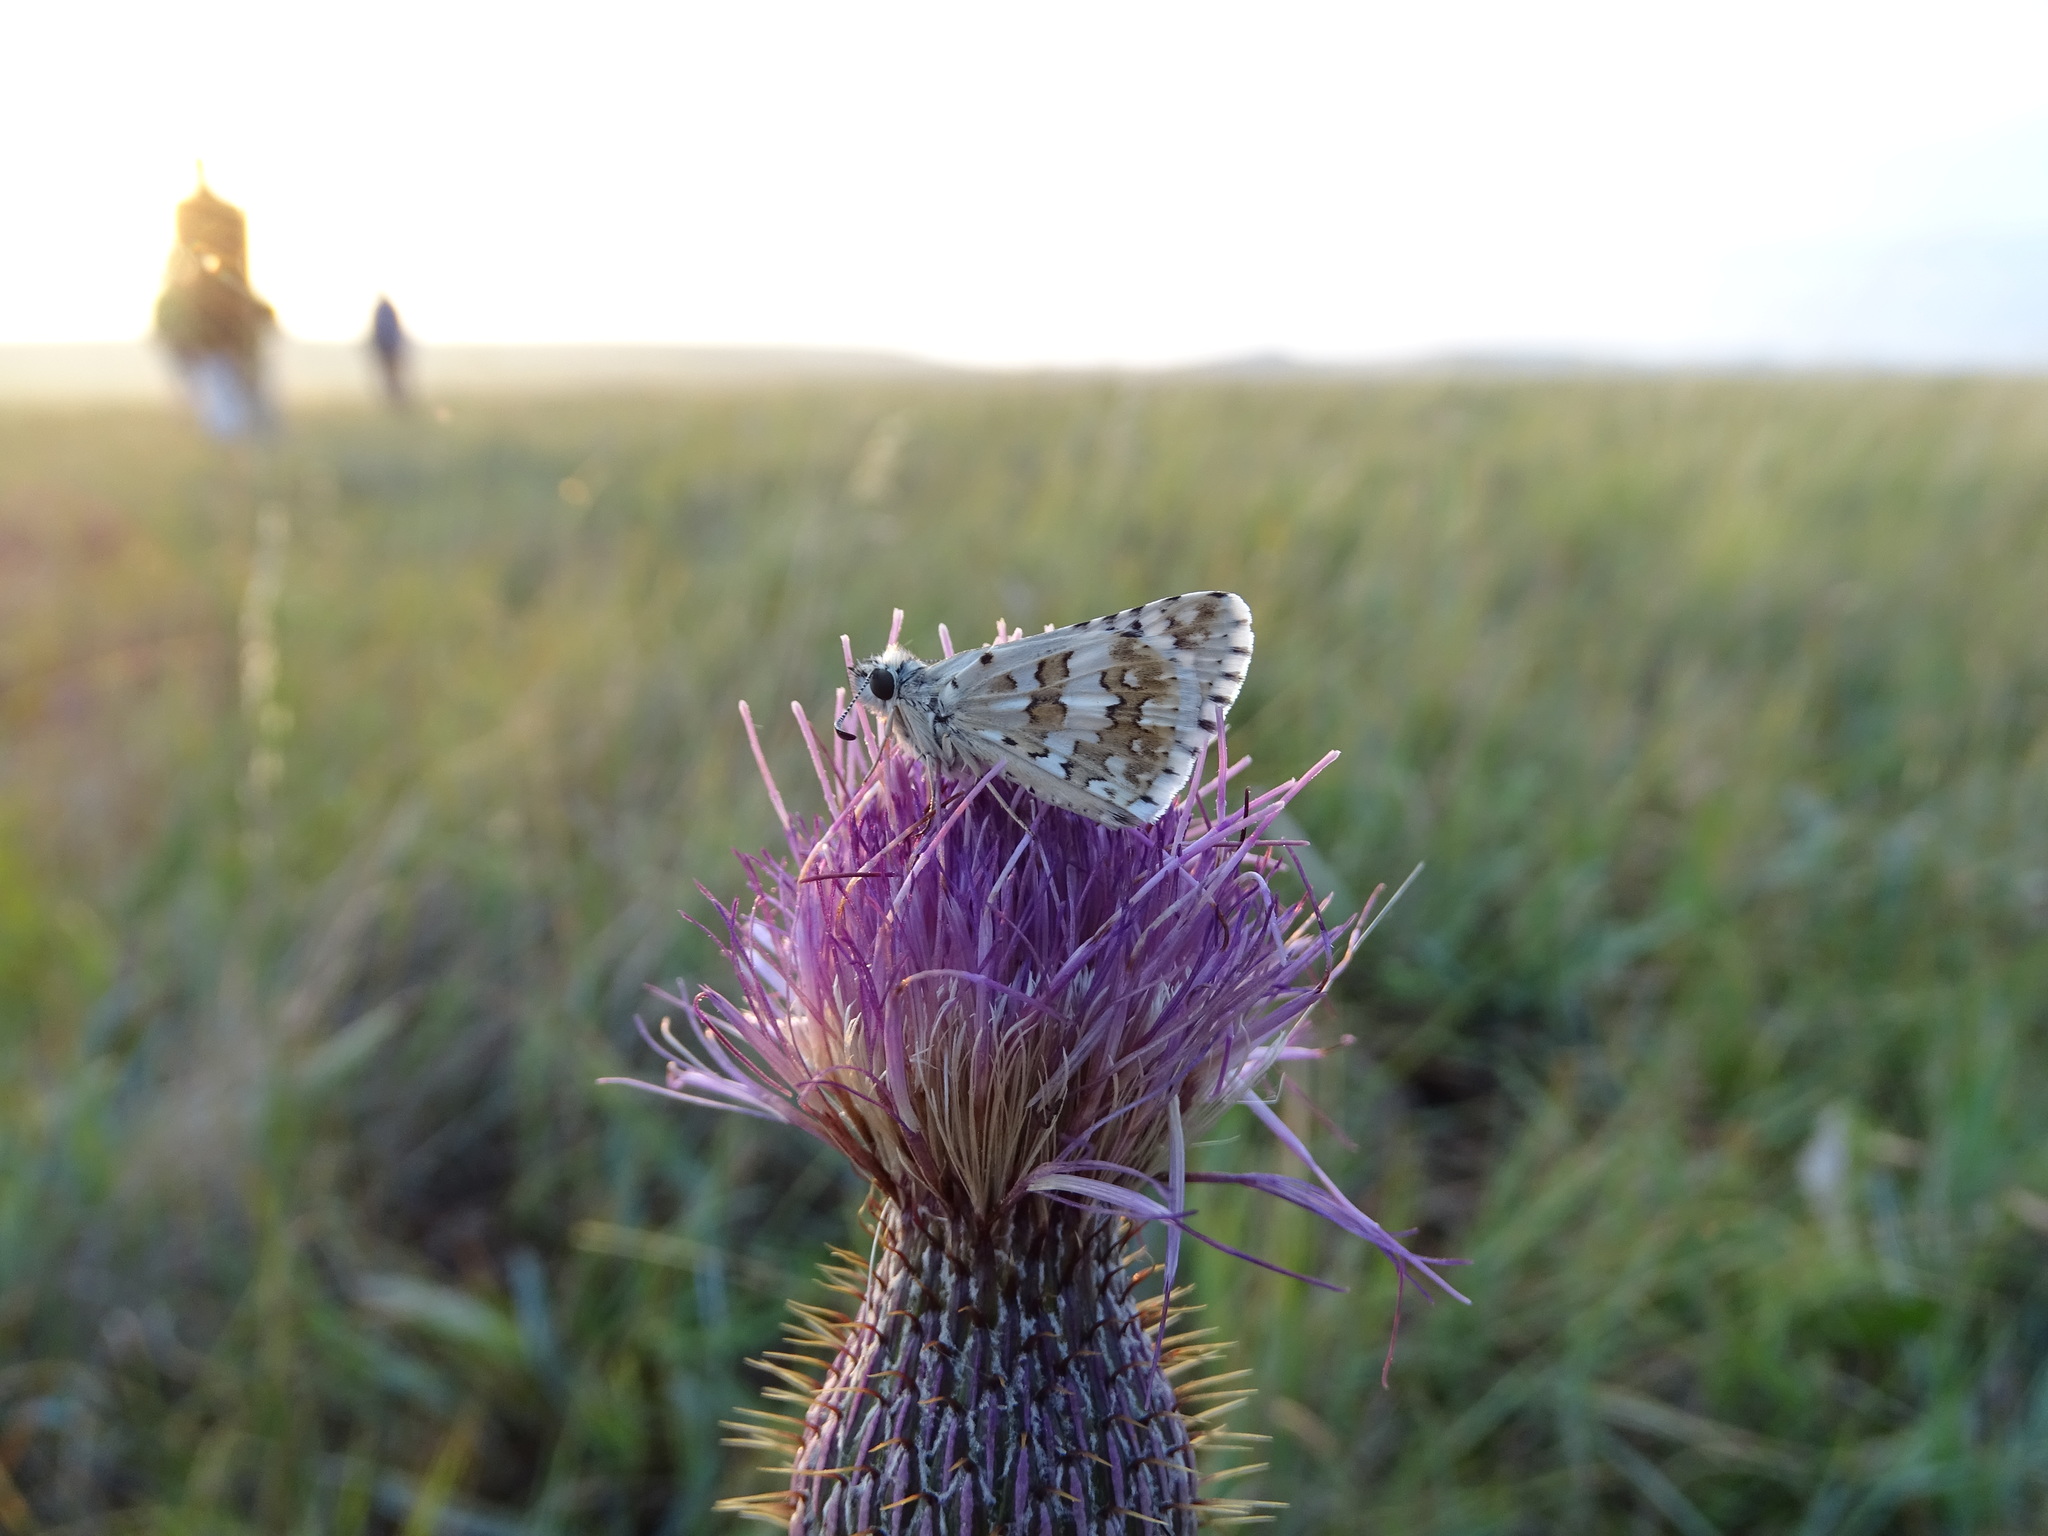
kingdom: Animalia
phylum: Arthropoda
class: Insecta
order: Lepidoptera
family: Hesperiidae
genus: Burnsius
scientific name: Burnsius communis
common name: Common checkered-skipper
